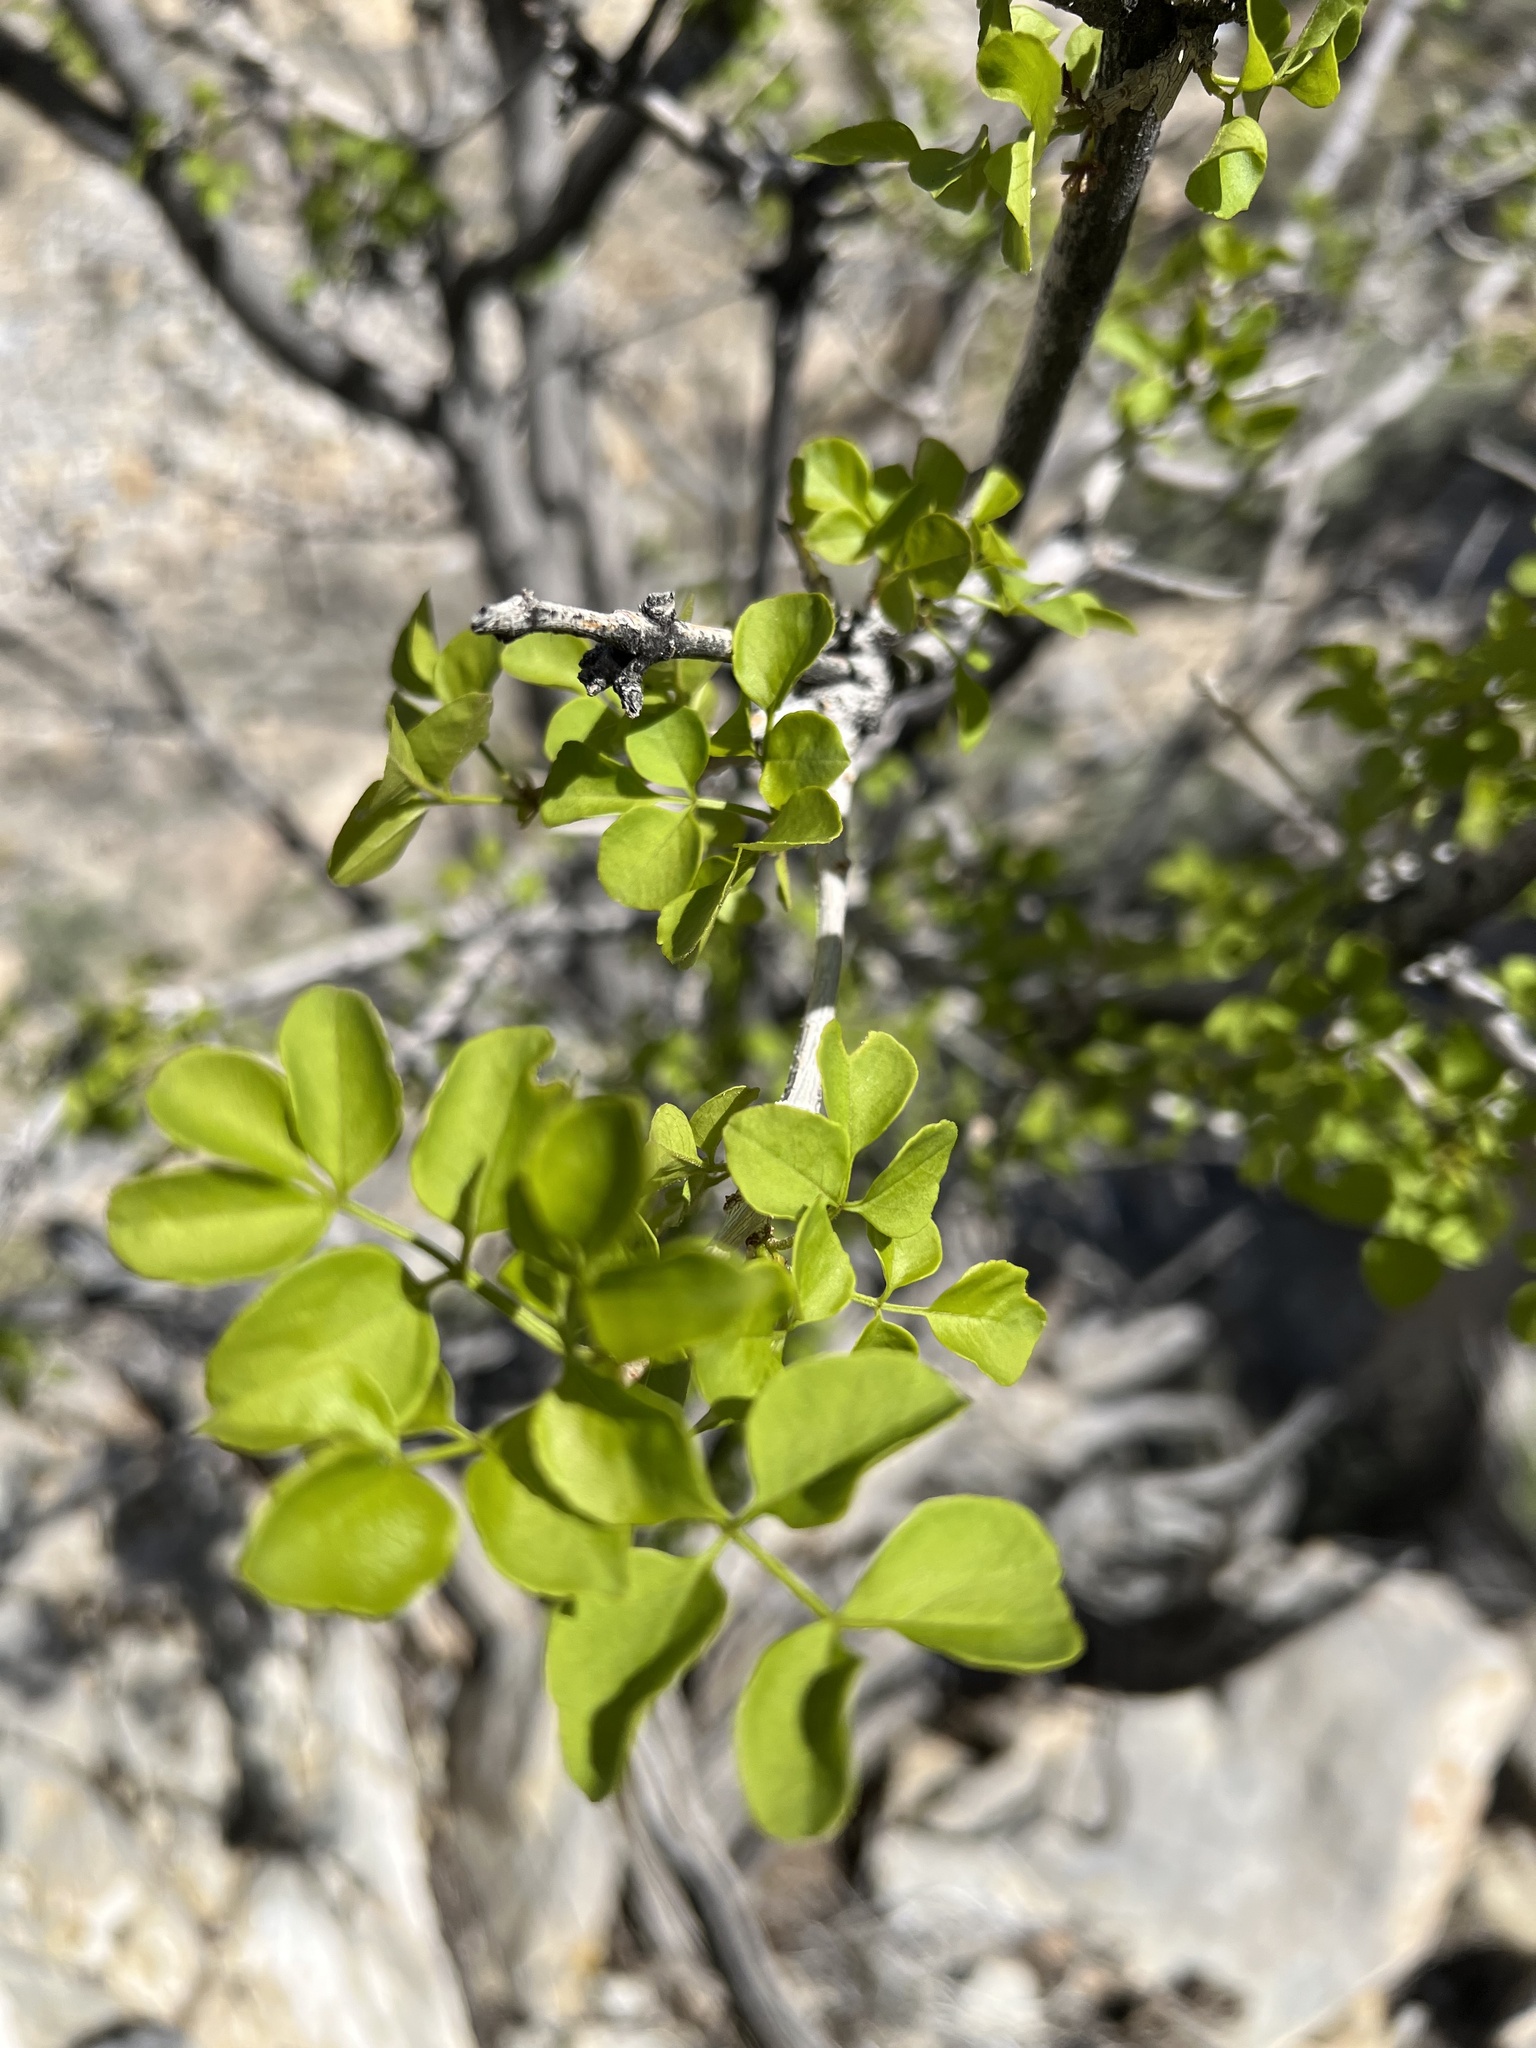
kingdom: Plantae
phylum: Tracheophyta
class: Magnoliopsida
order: Lamiales
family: Oleaceae
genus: Fraxinus
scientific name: Fraxinus anomala
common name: Utah ash
